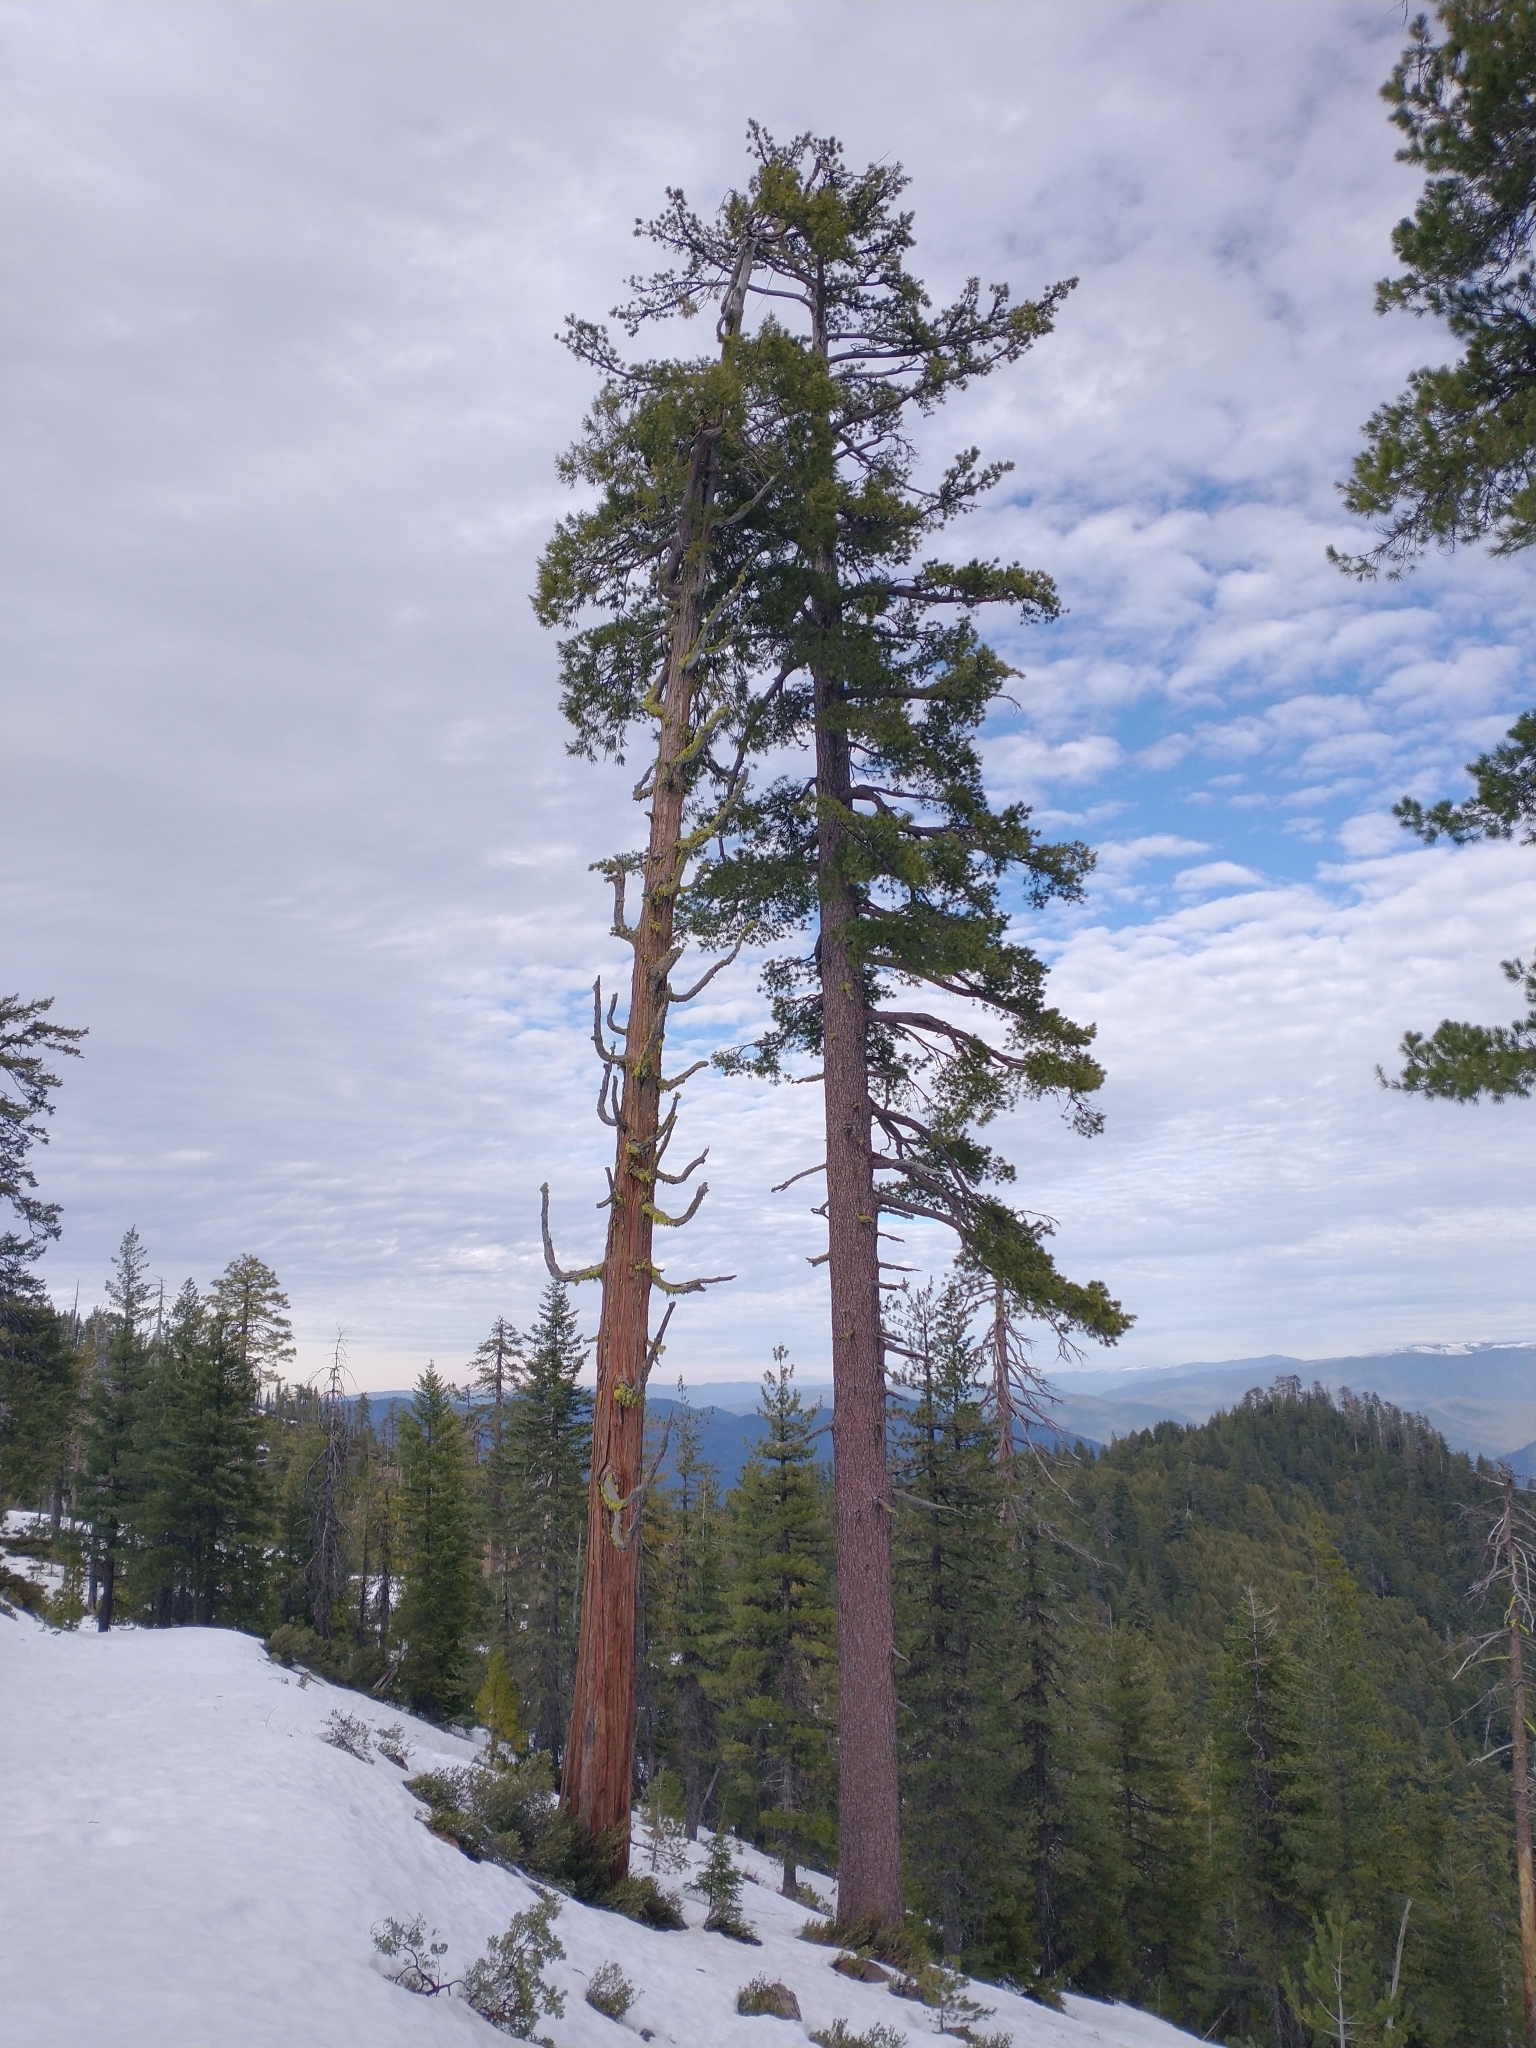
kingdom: Plantae
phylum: Tracheophyta
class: Pinopsida
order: Pinales
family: Cupressaceae
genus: Calocedrus
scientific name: Calocedrus decurrens
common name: Californian incense-cedar
